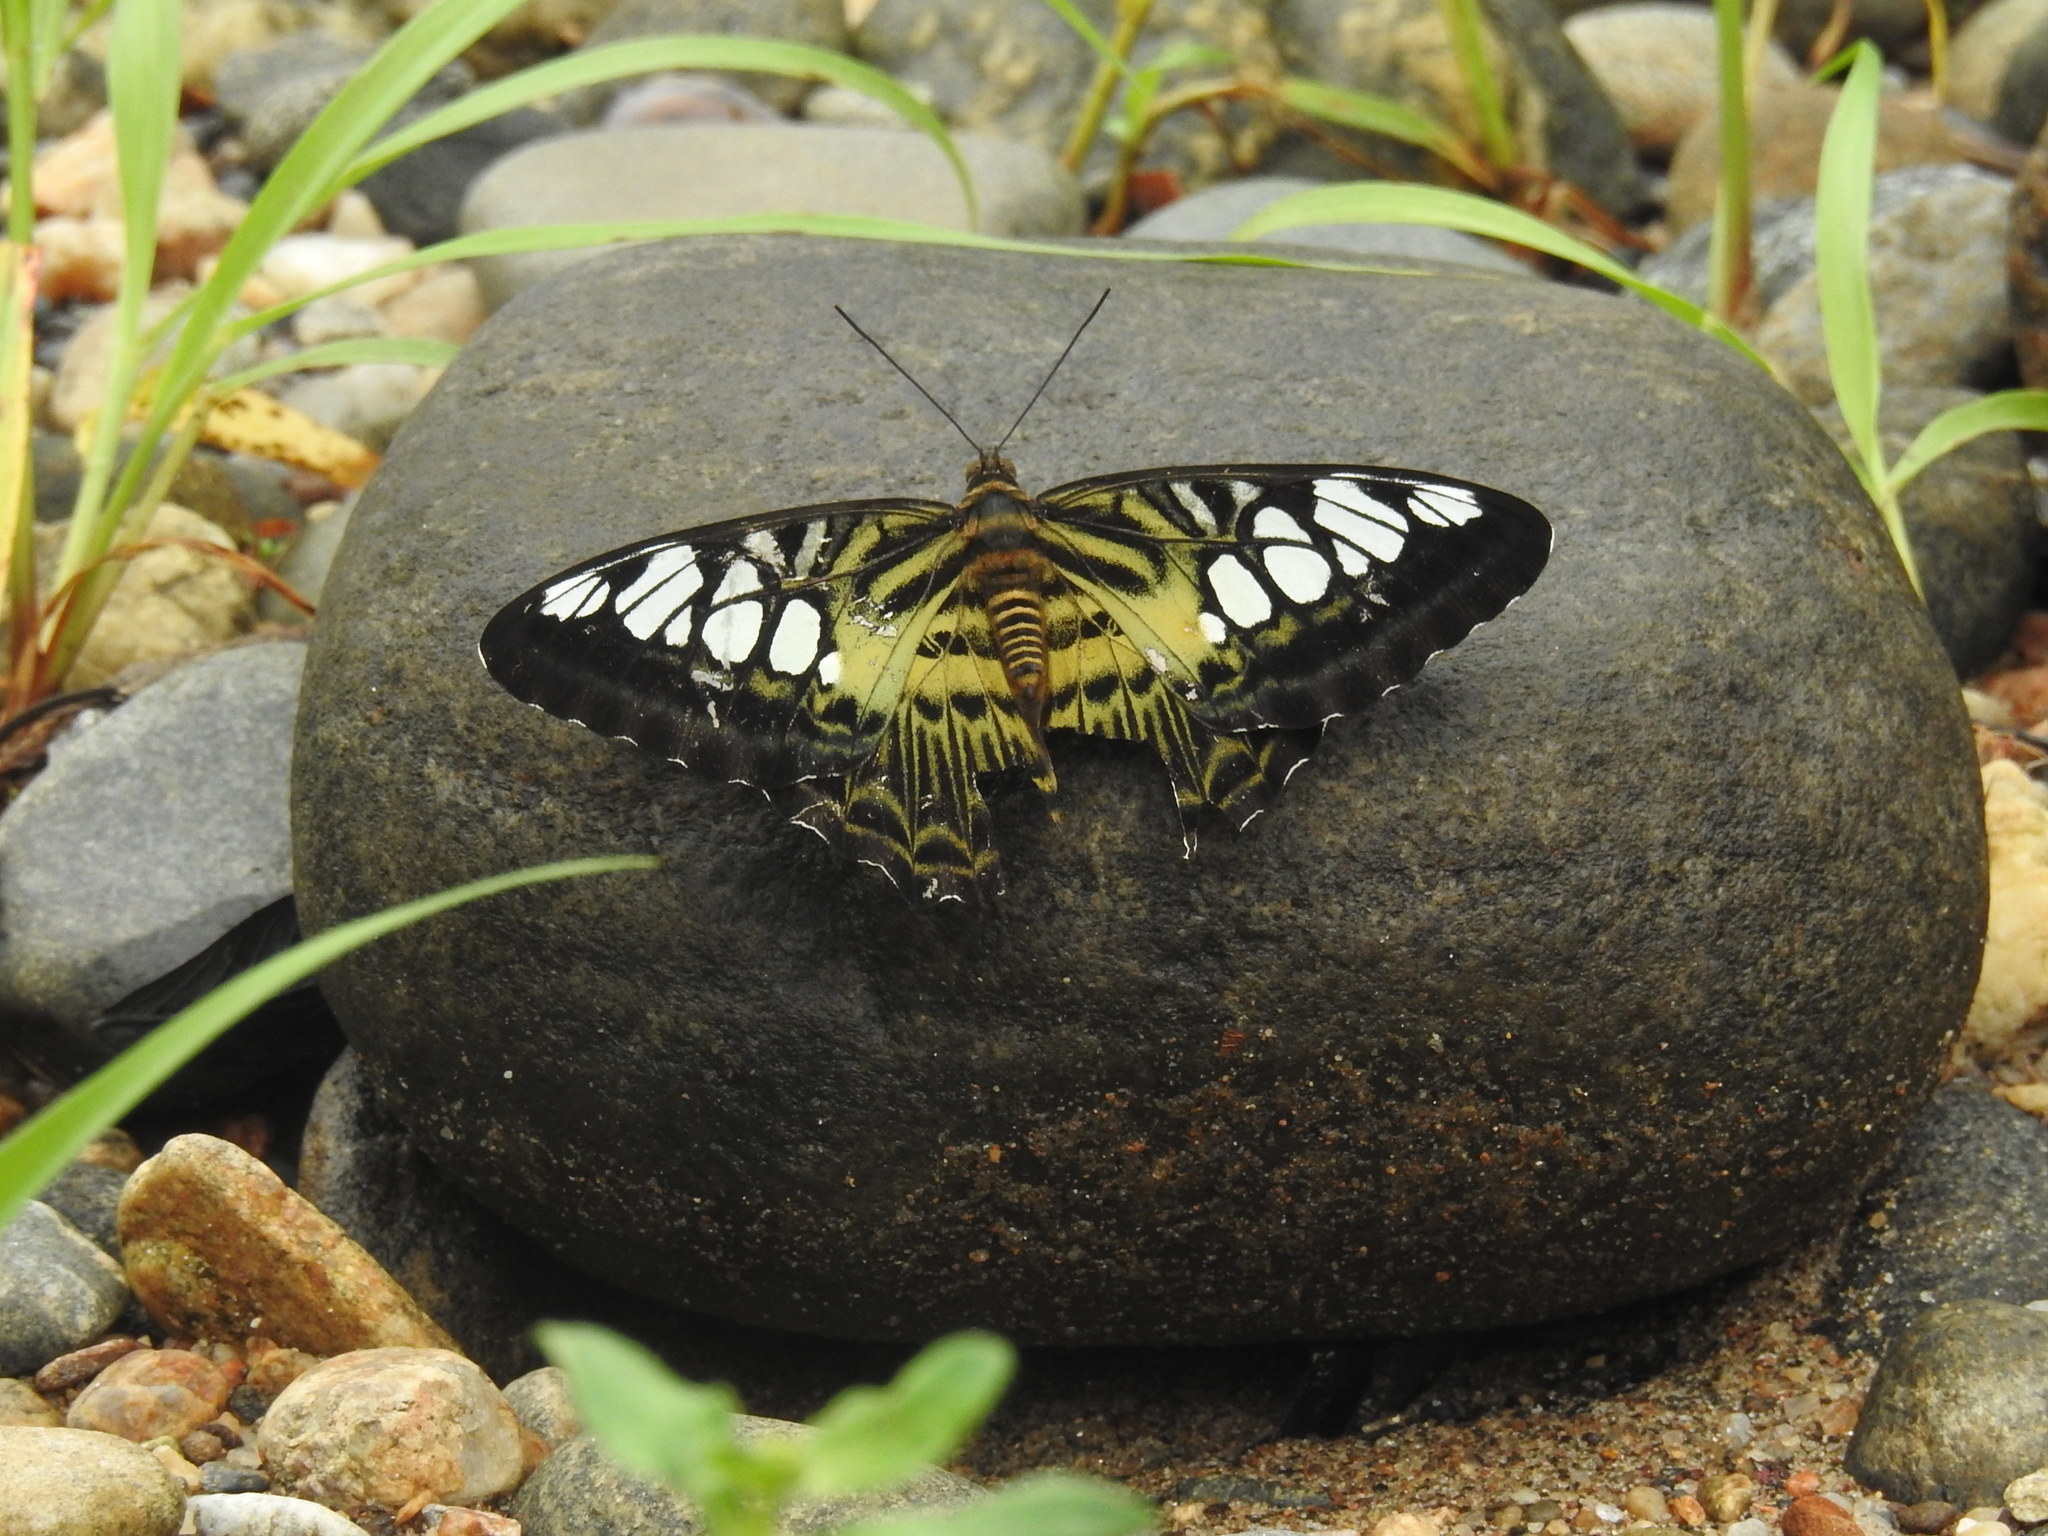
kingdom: Animalia
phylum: Arthropoda
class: Insecta
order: Lepidoptera
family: Nymphalidae
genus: Kallima
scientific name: Kallima sylvia
